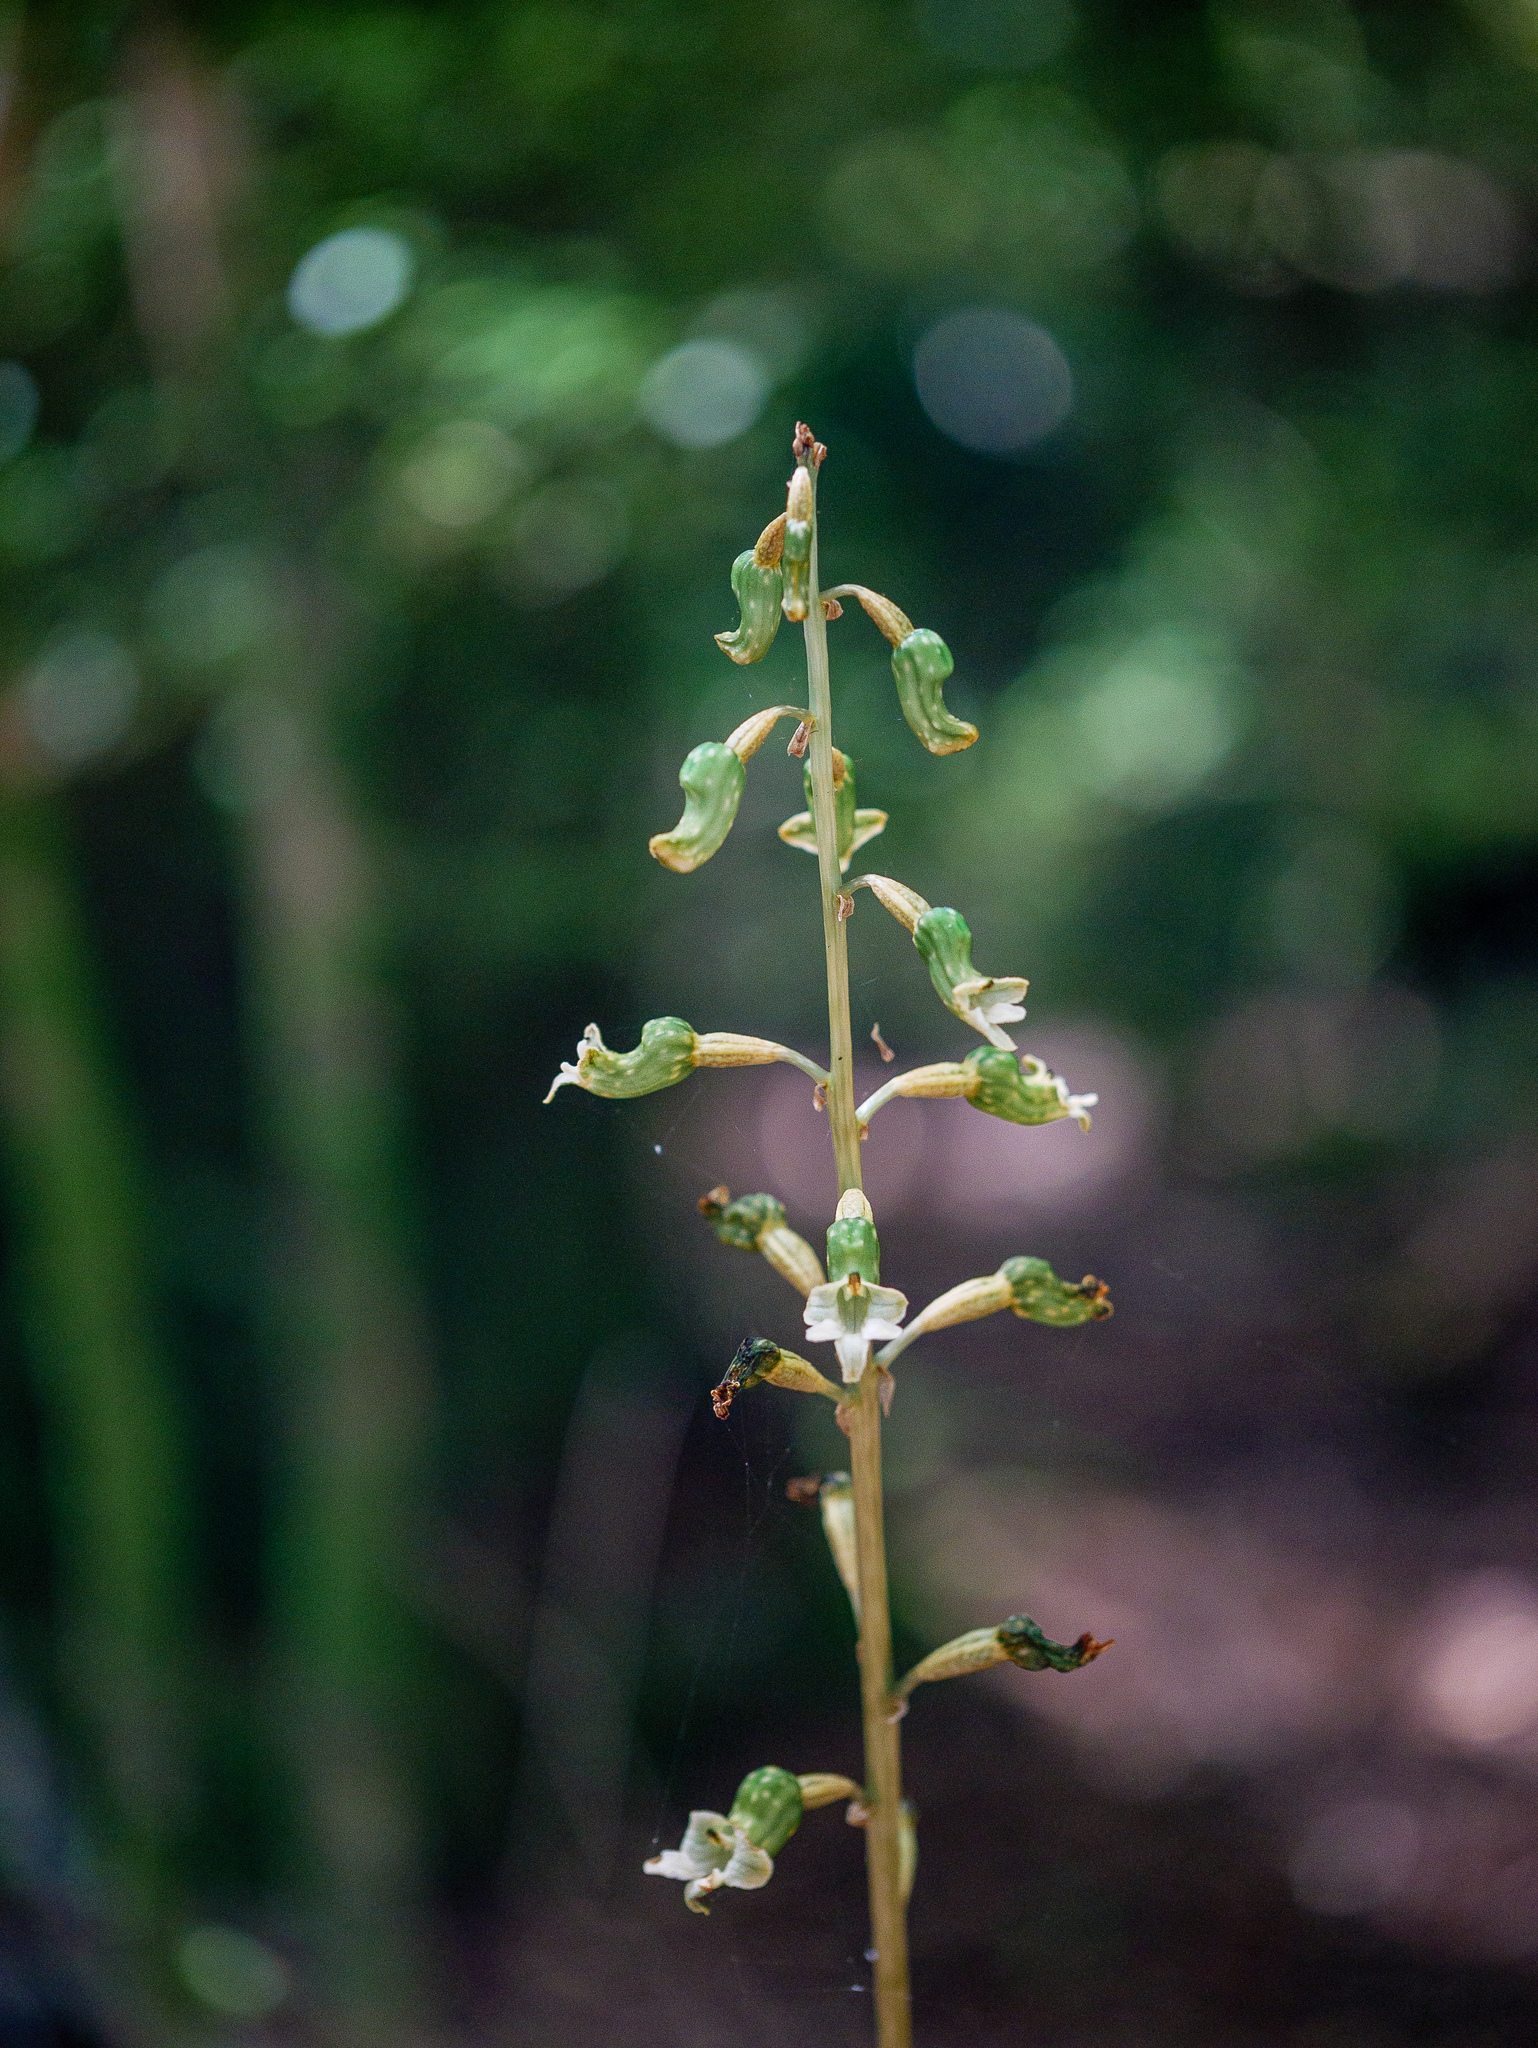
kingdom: Plantae
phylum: Tracheophyta
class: Liliopsida
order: Asparagales
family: Orchidaceae
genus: Gastrodia
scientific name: Gastrodia cunninghamii
